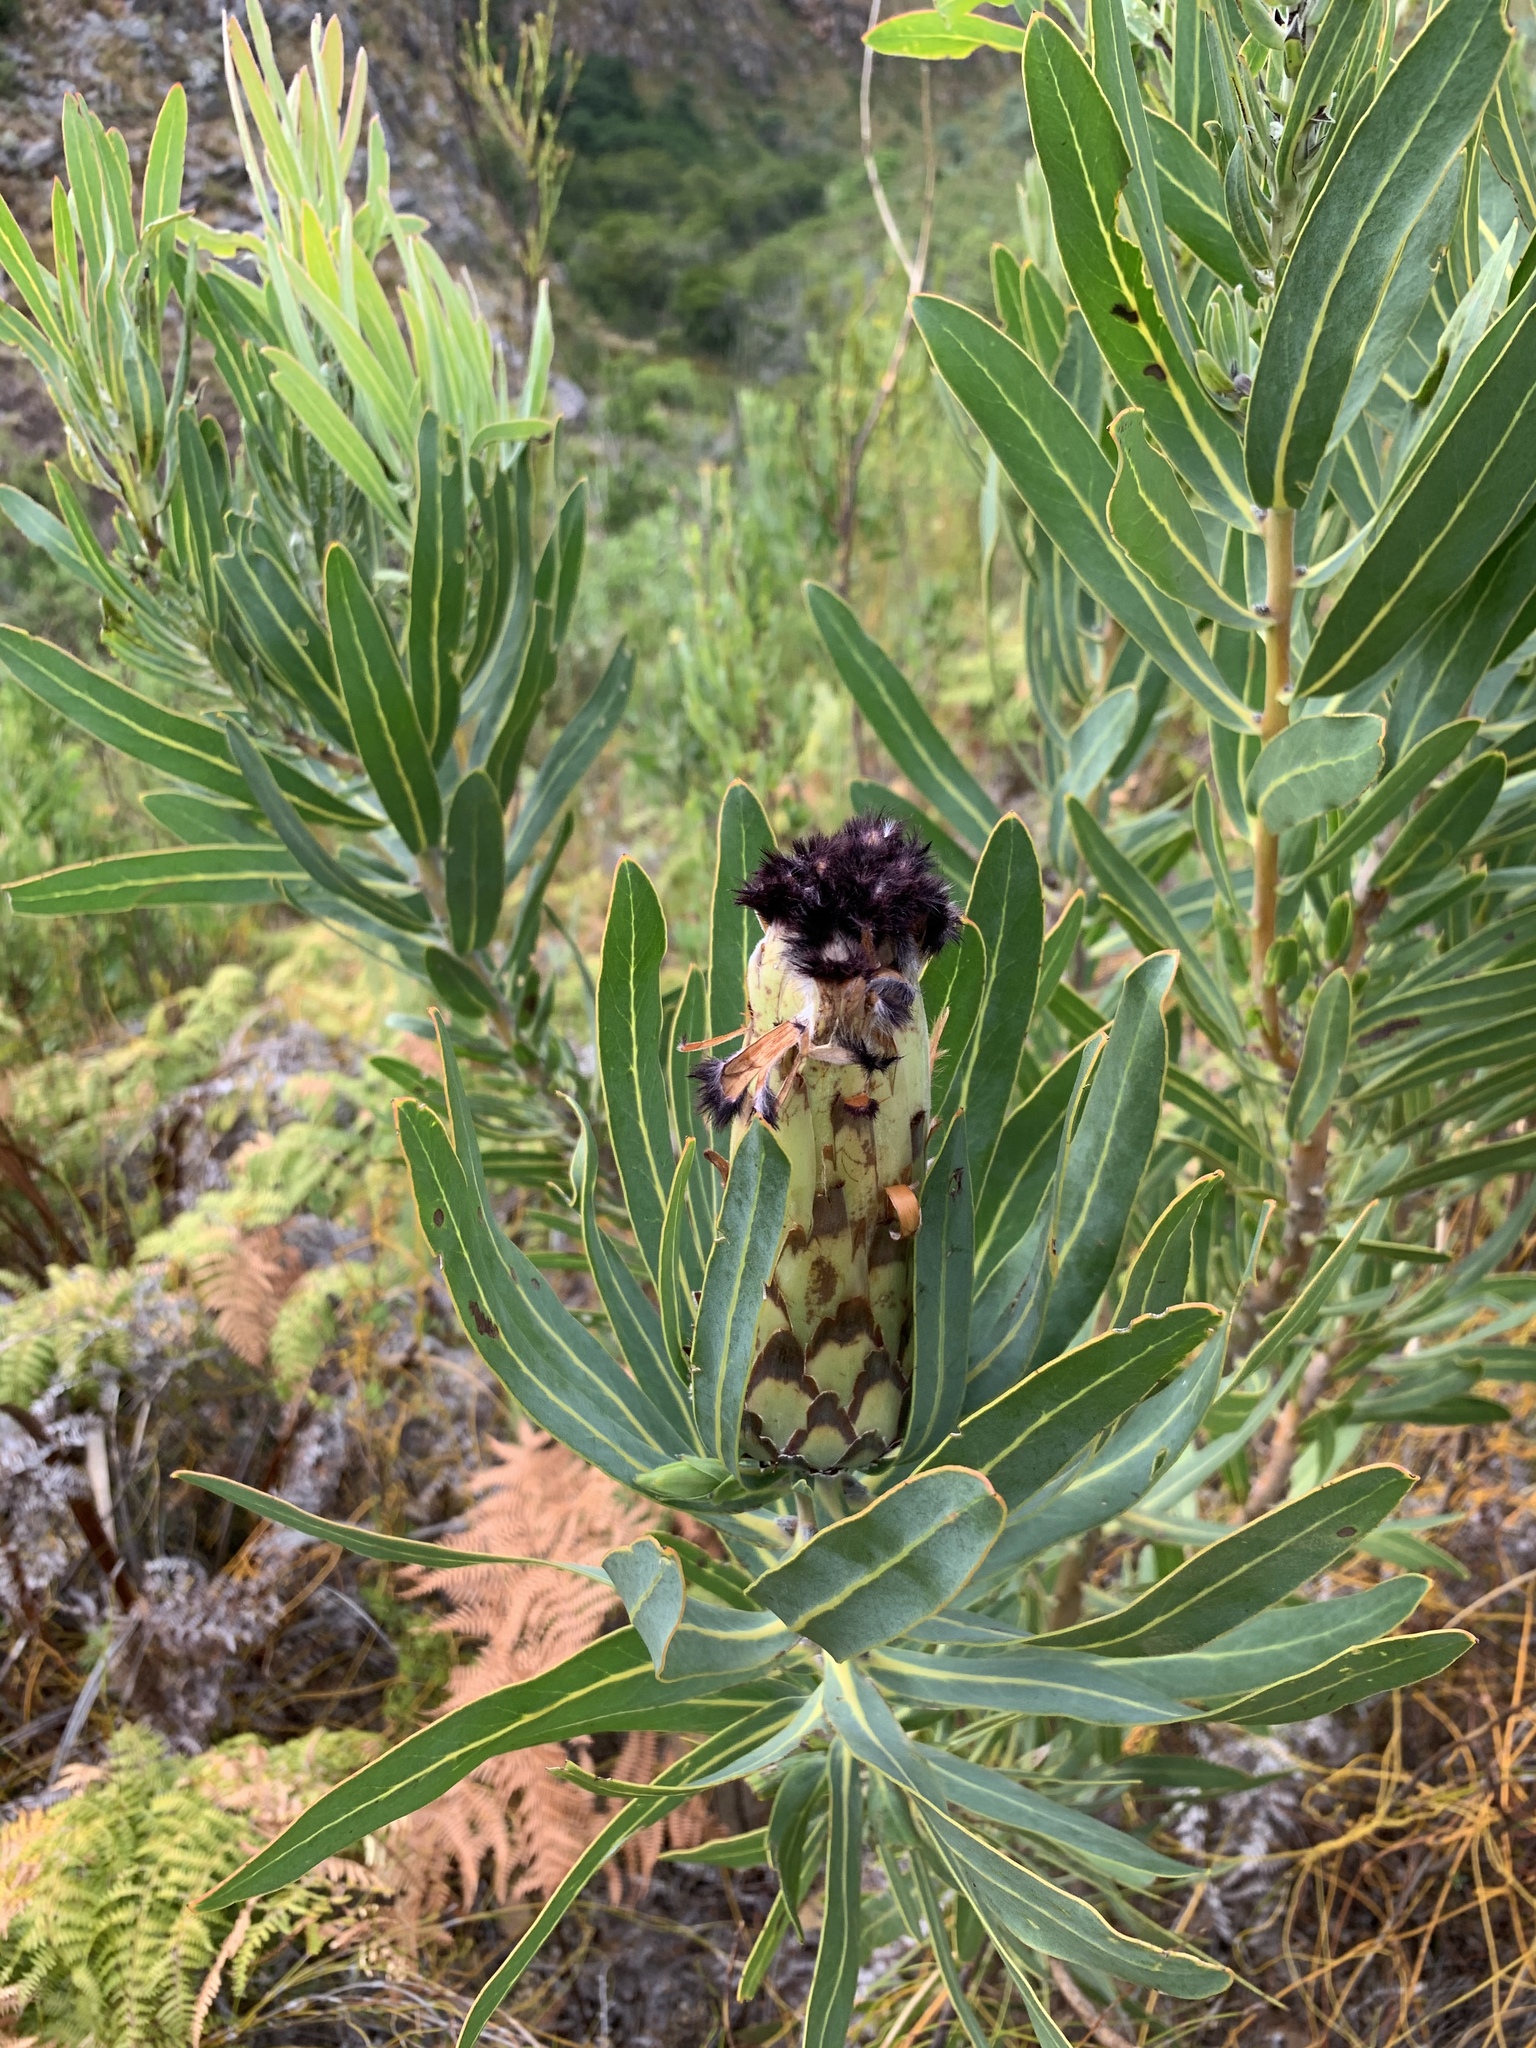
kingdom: Plantae
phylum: Tracheophyta
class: Magnoliopsida
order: Proteales
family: Proteaceae
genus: Protea
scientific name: Protea neriifolia
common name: Blue sugarbush
